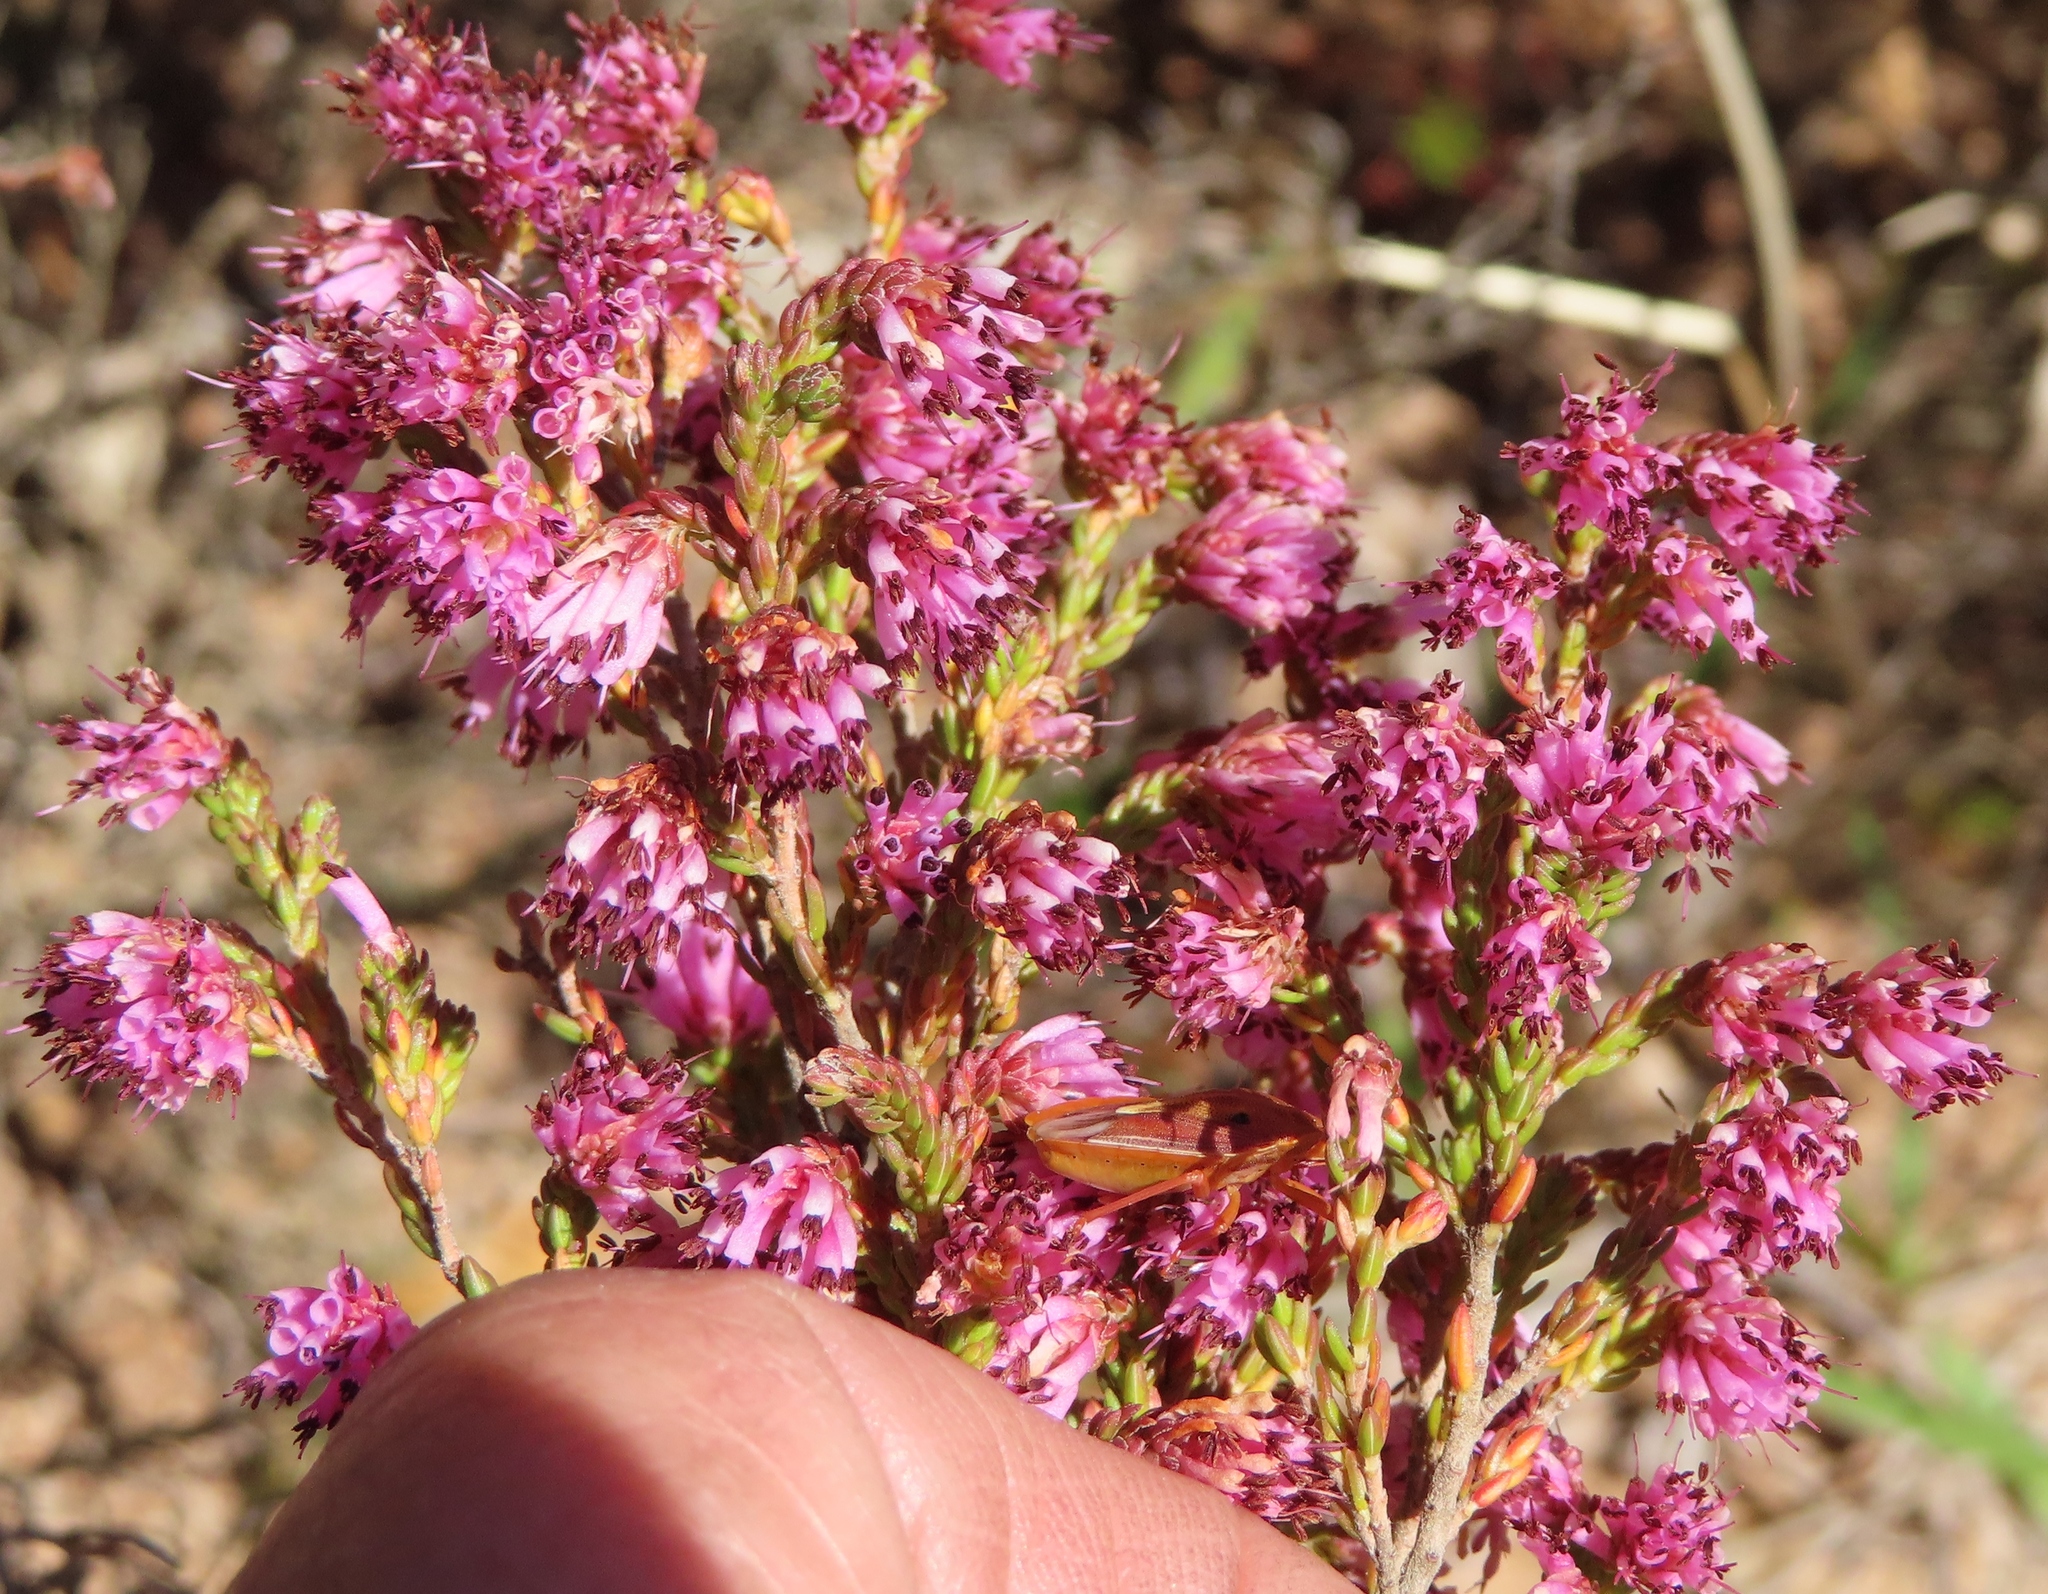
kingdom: Plantae
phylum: Tracheophyta
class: Magnoliopsida
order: Ericales
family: Ericaceae
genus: Erica
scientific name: Erica labialis
